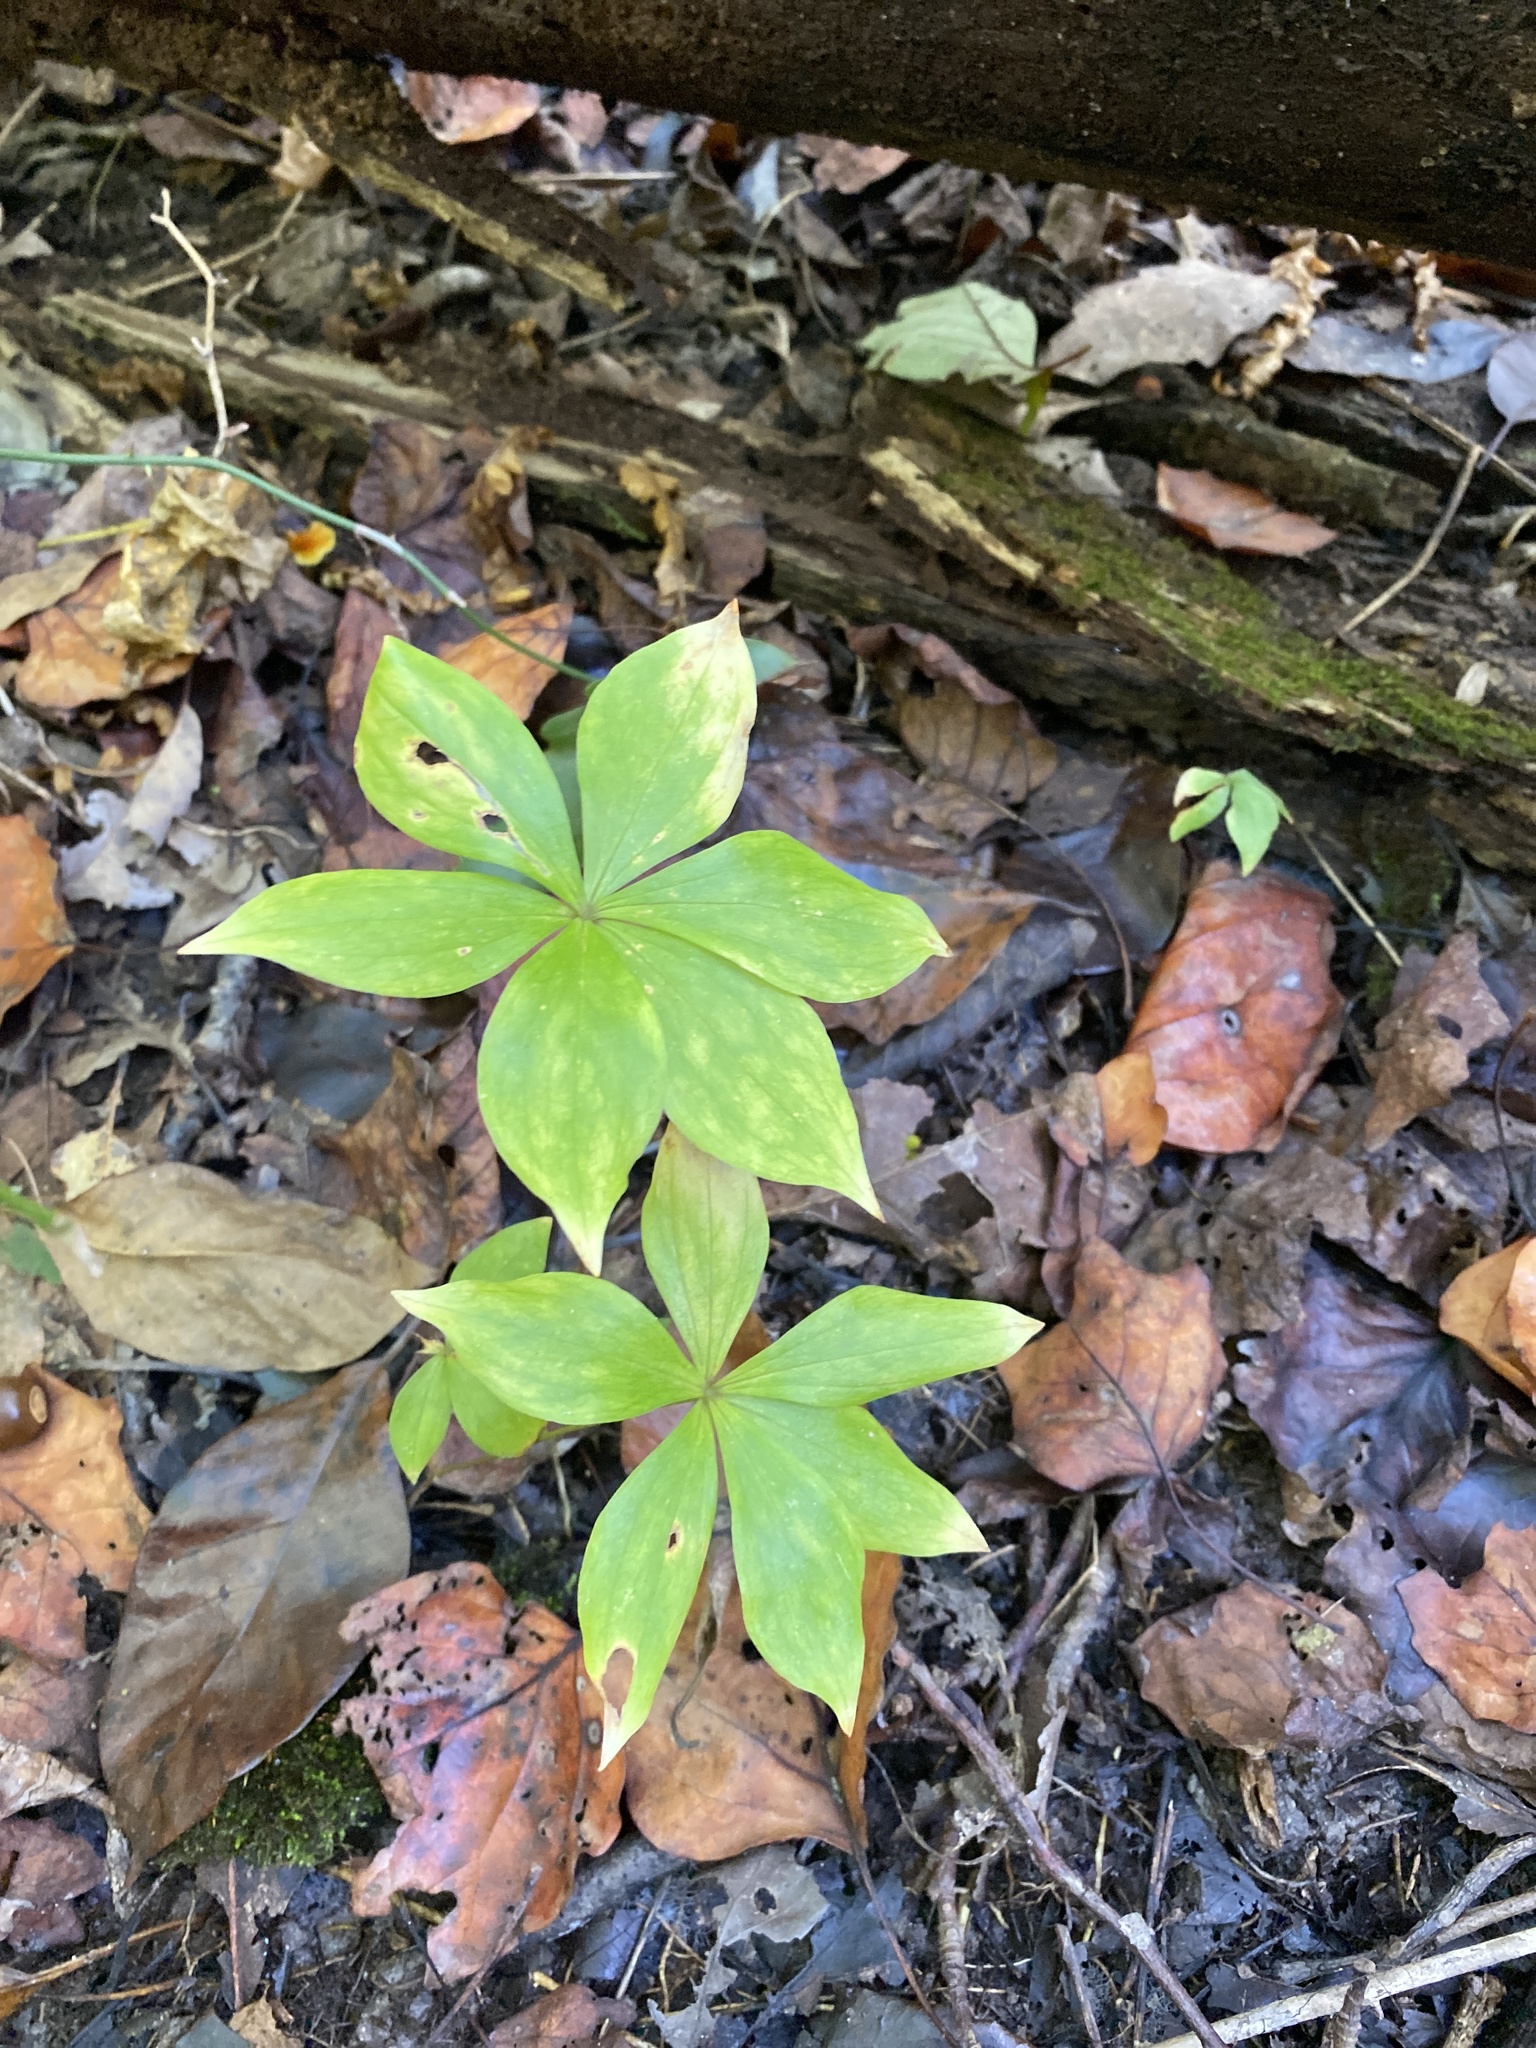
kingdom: Plantae
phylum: Tracheophyta
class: Liliopsida
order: Liliales
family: Liliaceae
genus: Medeola
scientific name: Medeola virginiana
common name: Indian cucumber-root
